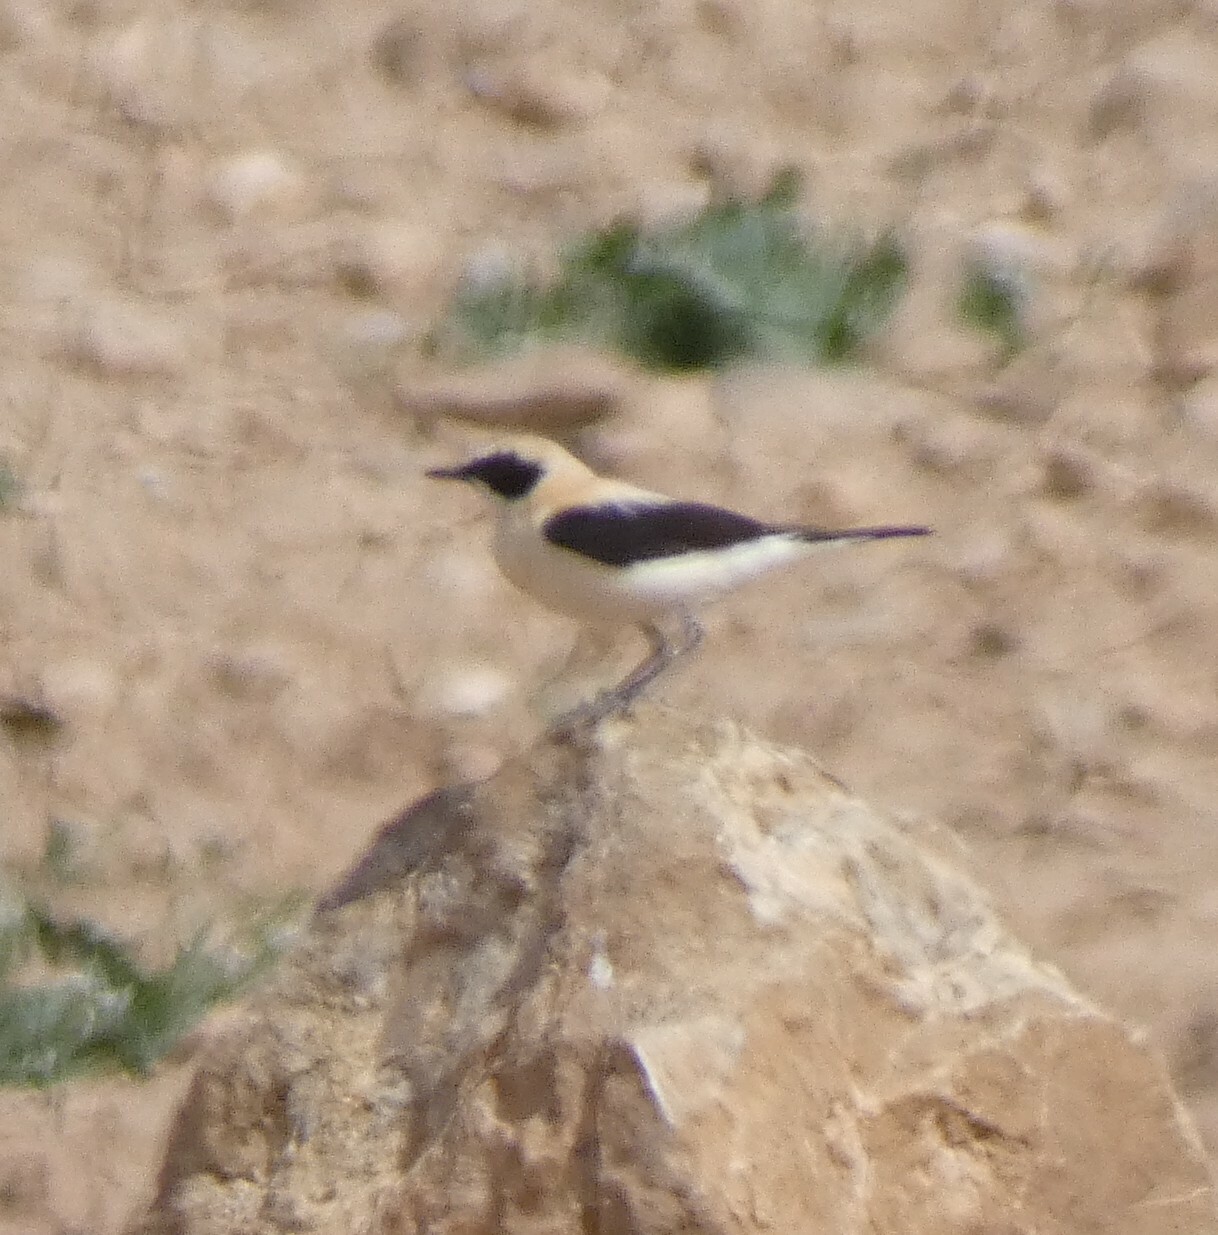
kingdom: Animalia
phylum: Chordata
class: Aves
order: Passeriformes
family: Muscicapidae
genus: Oenanthe
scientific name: Oenanthe hispanica
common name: Black-eared wheatear
